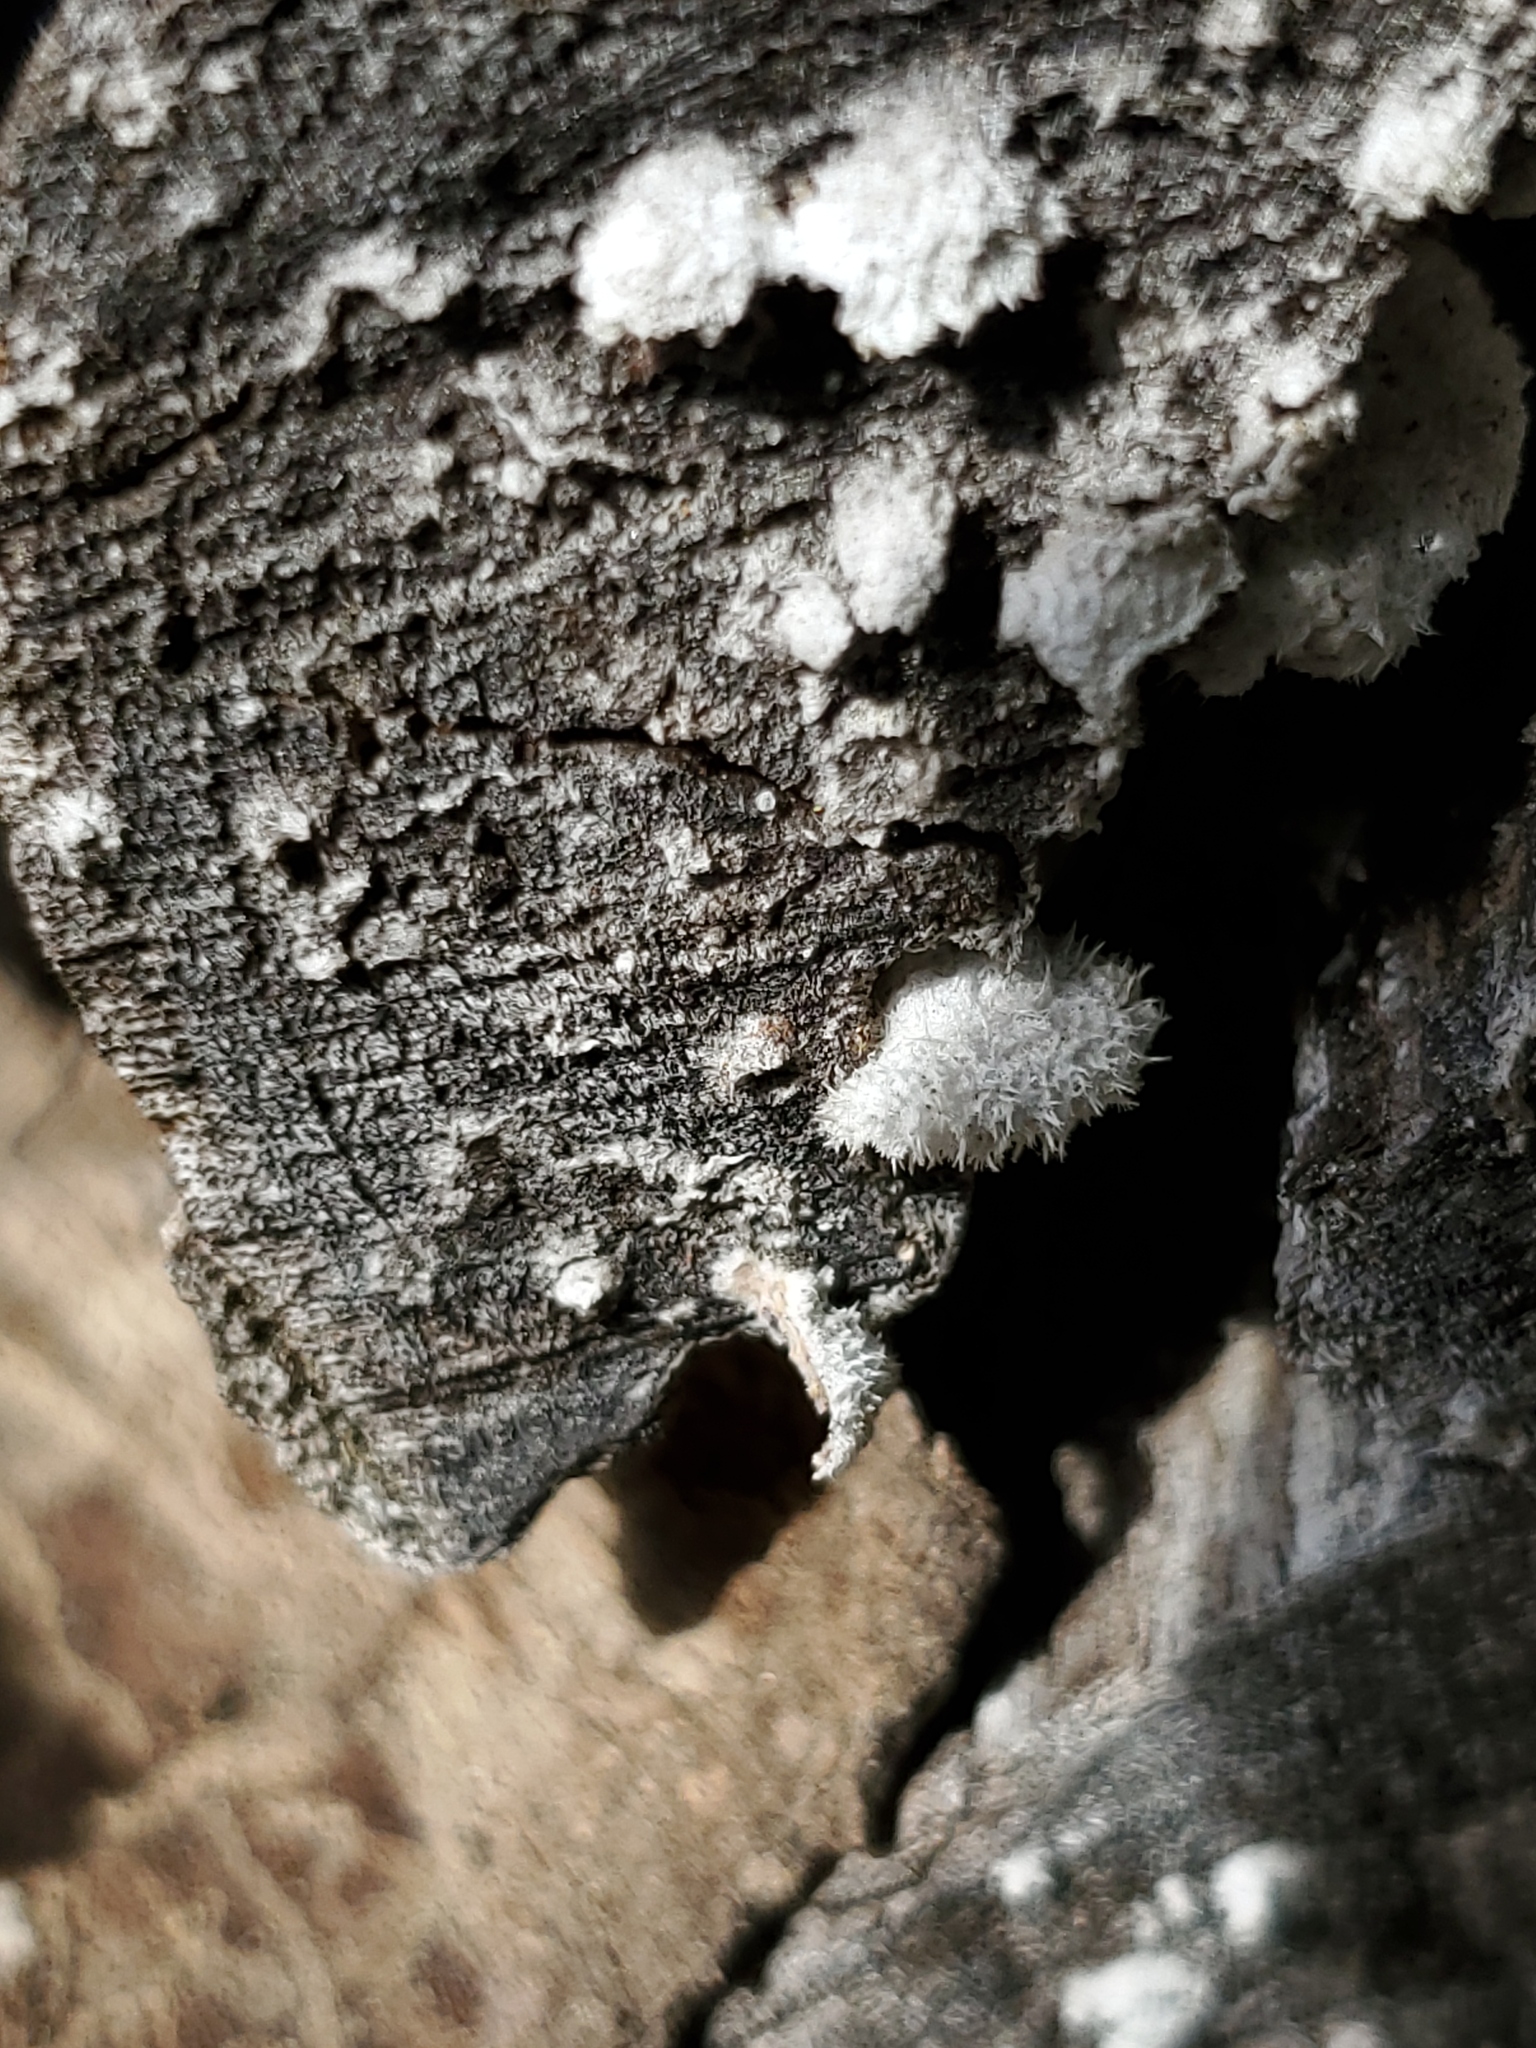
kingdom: Fungi
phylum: Basidiomycota
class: Agaricomycetes
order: Agaricales
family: Schizophyllaceae
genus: Schizophyllum
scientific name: Schizophyllum commune
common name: Common porecrust
